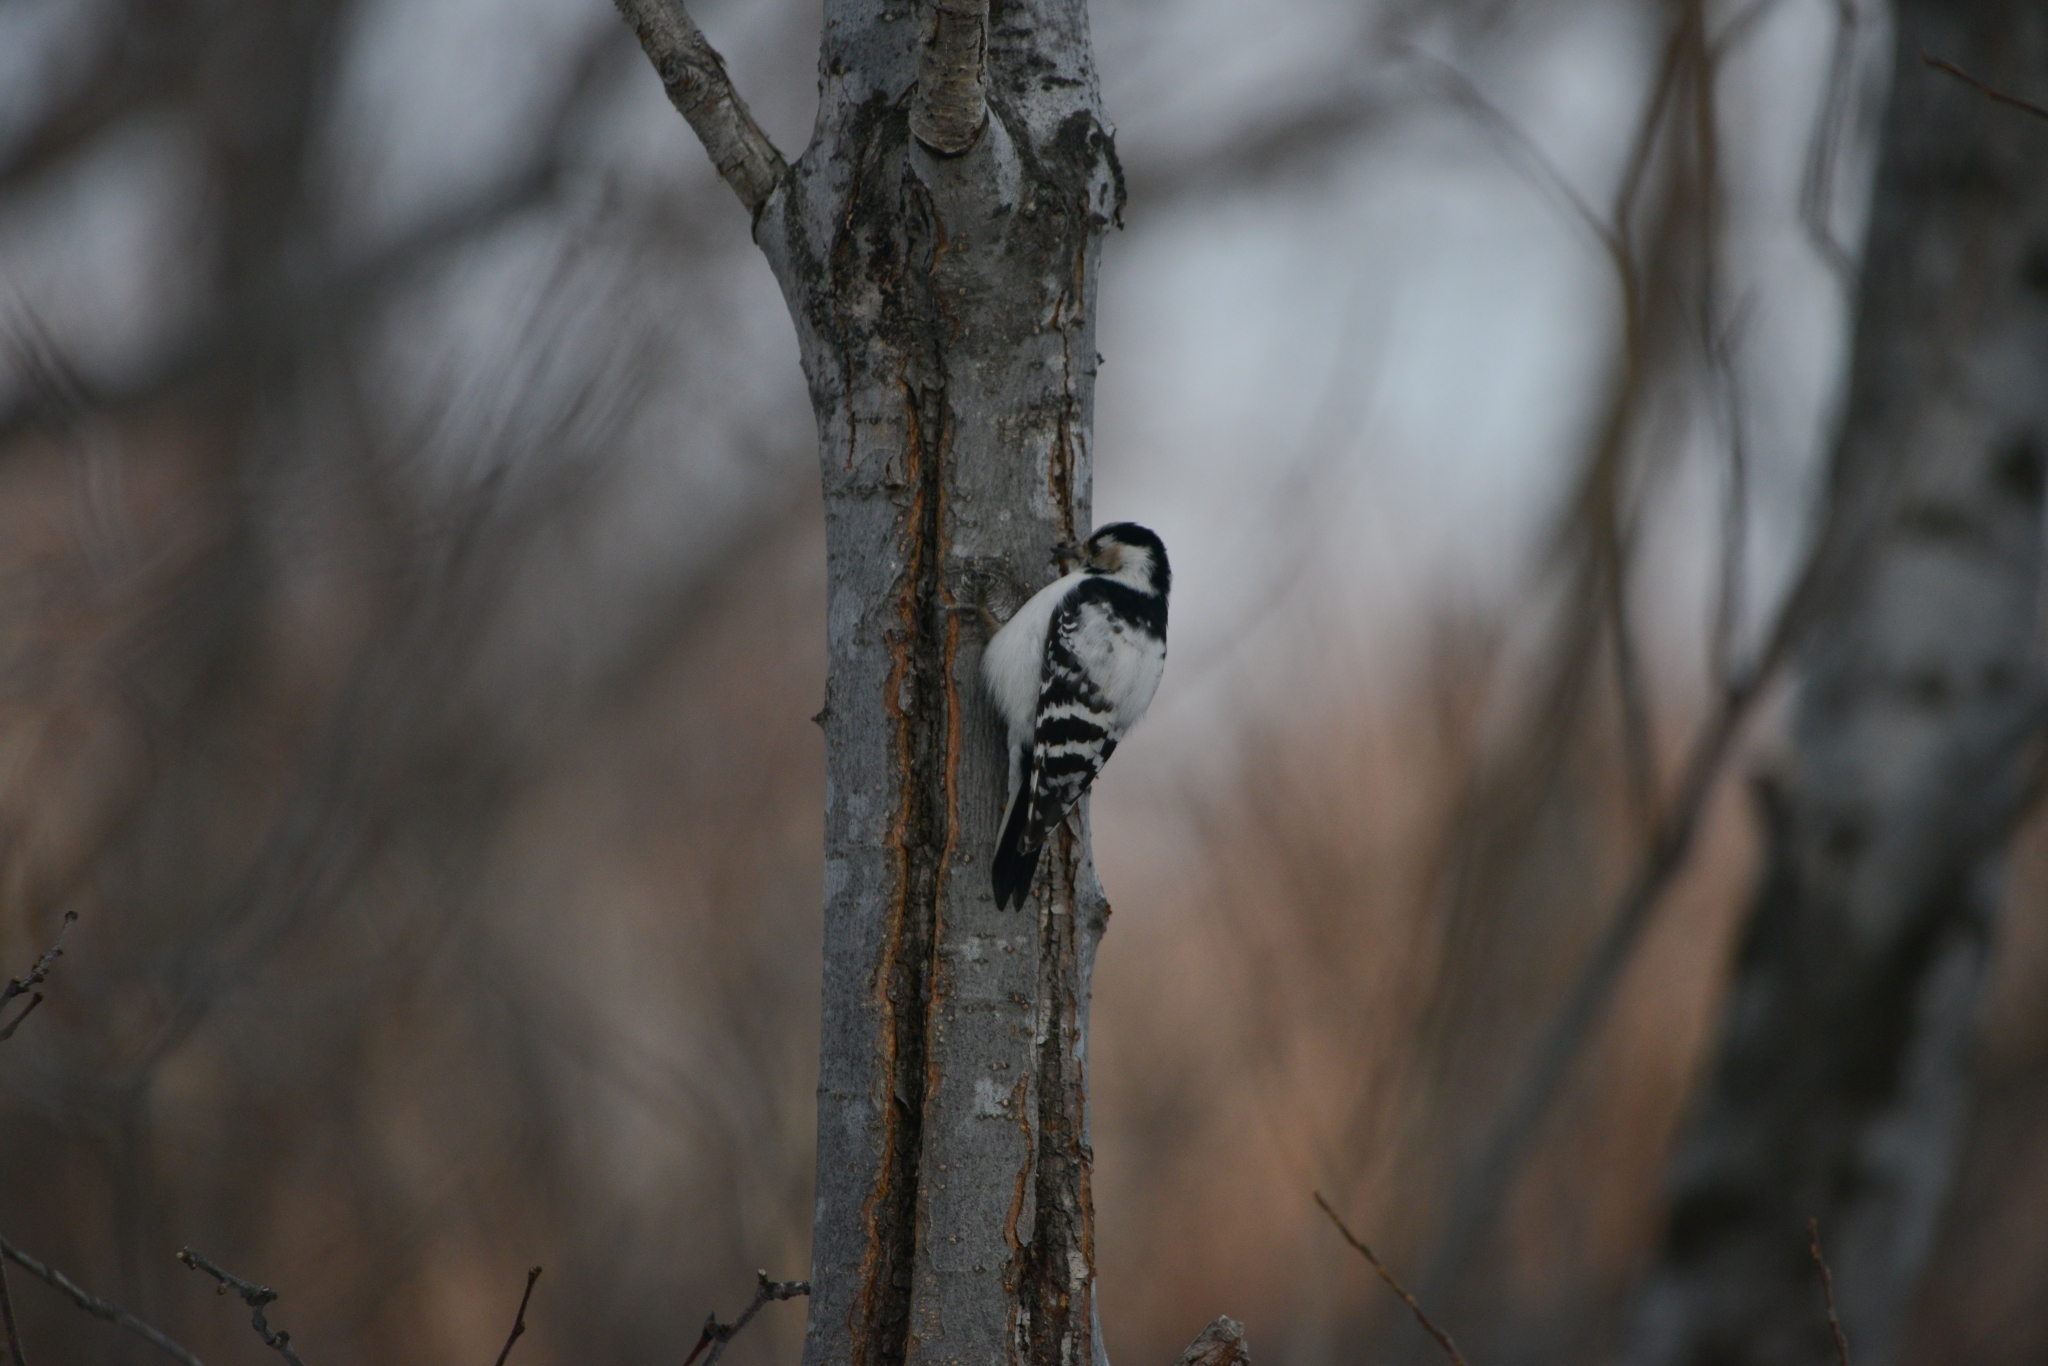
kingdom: Animalia
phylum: Chordata
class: Aves
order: Piciformes
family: Picidae
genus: Dryobates
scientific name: Dryobates minor
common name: Lesser spotted woodpecker
